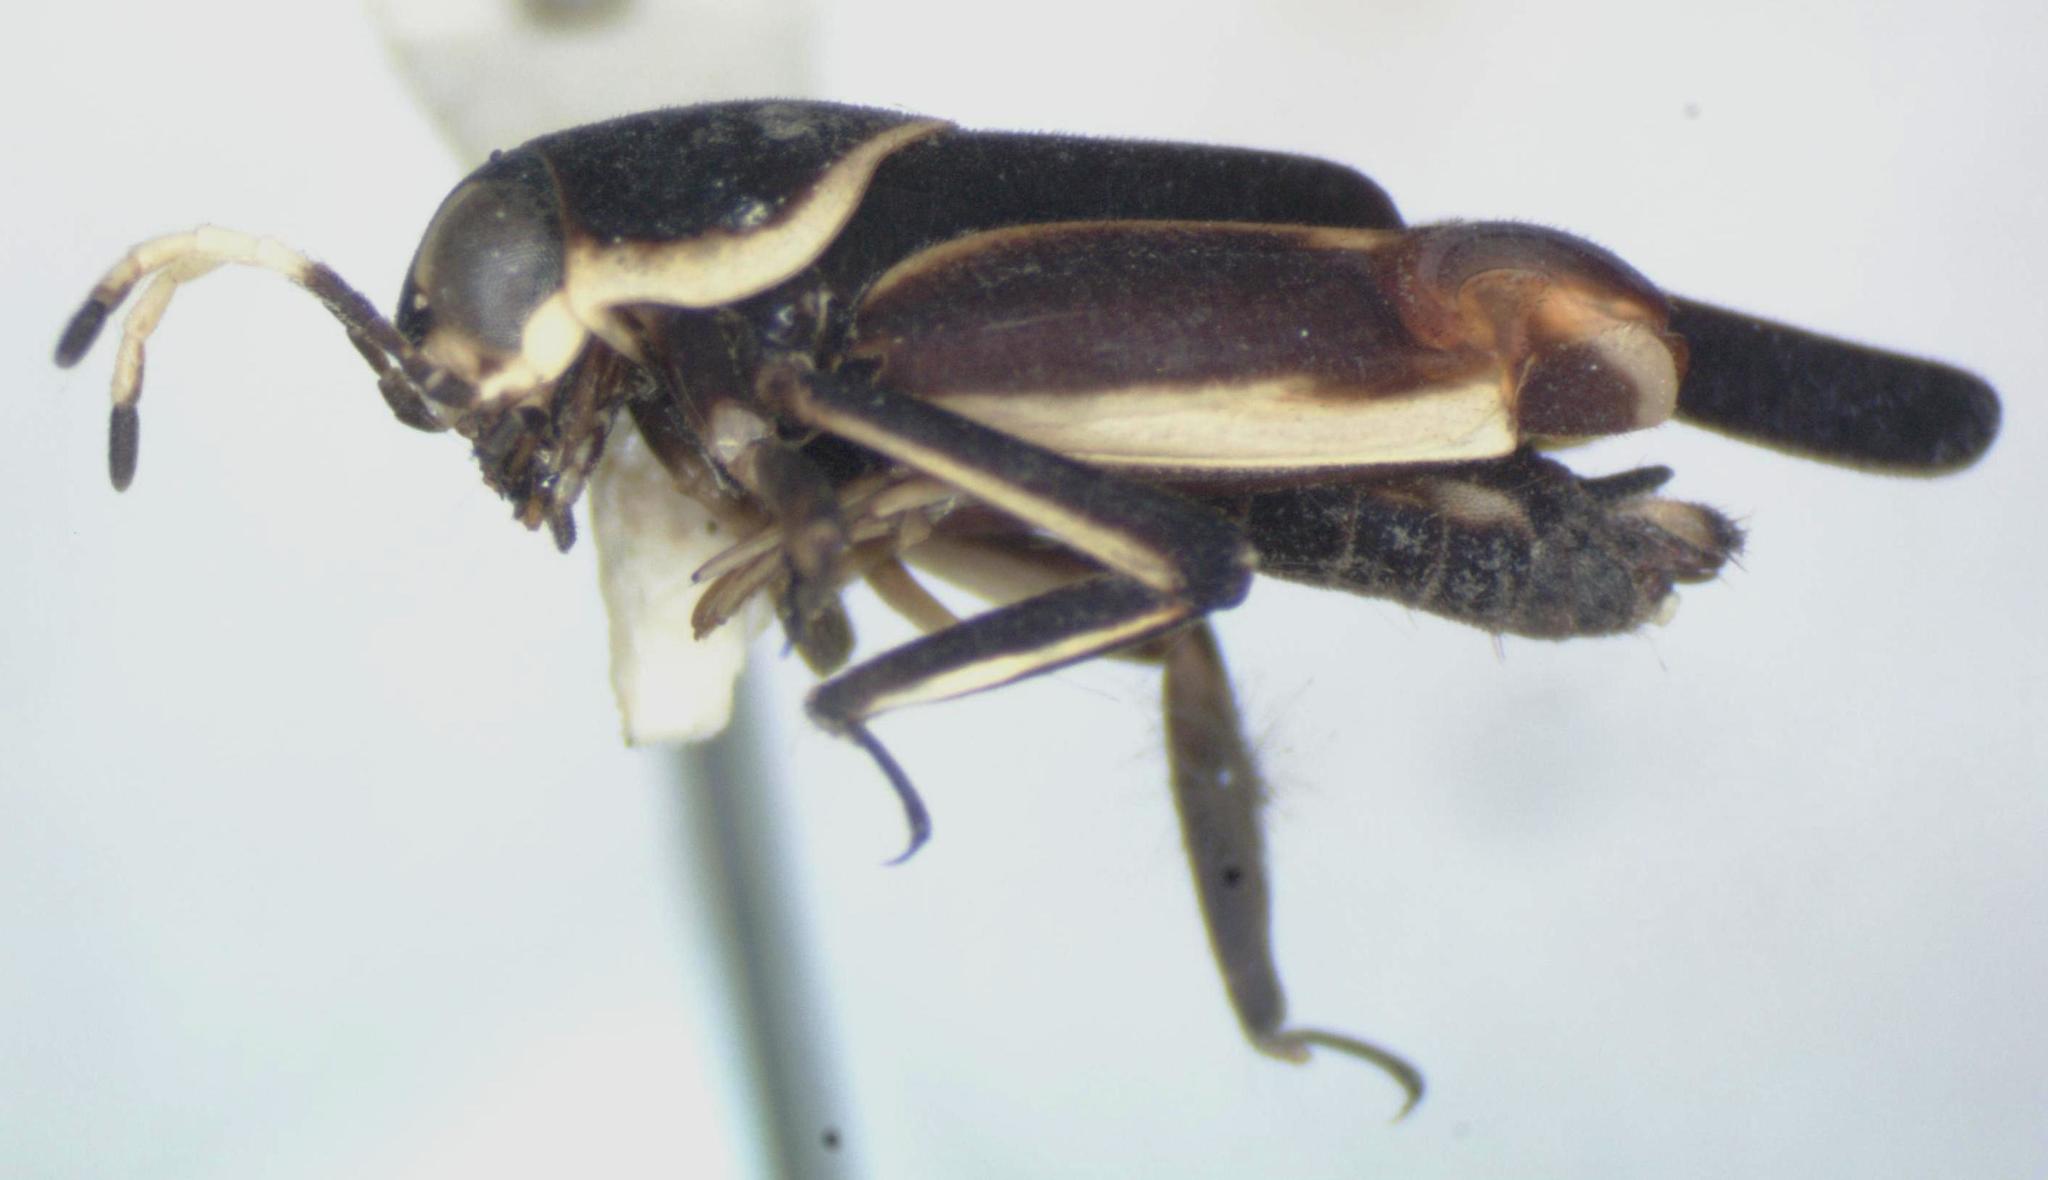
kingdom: Animalia
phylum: Arthropoda
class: Insecta
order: Orthoptera
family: Ripipterygidae
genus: Ripipteryx
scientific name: Ripipteryx mexicana
